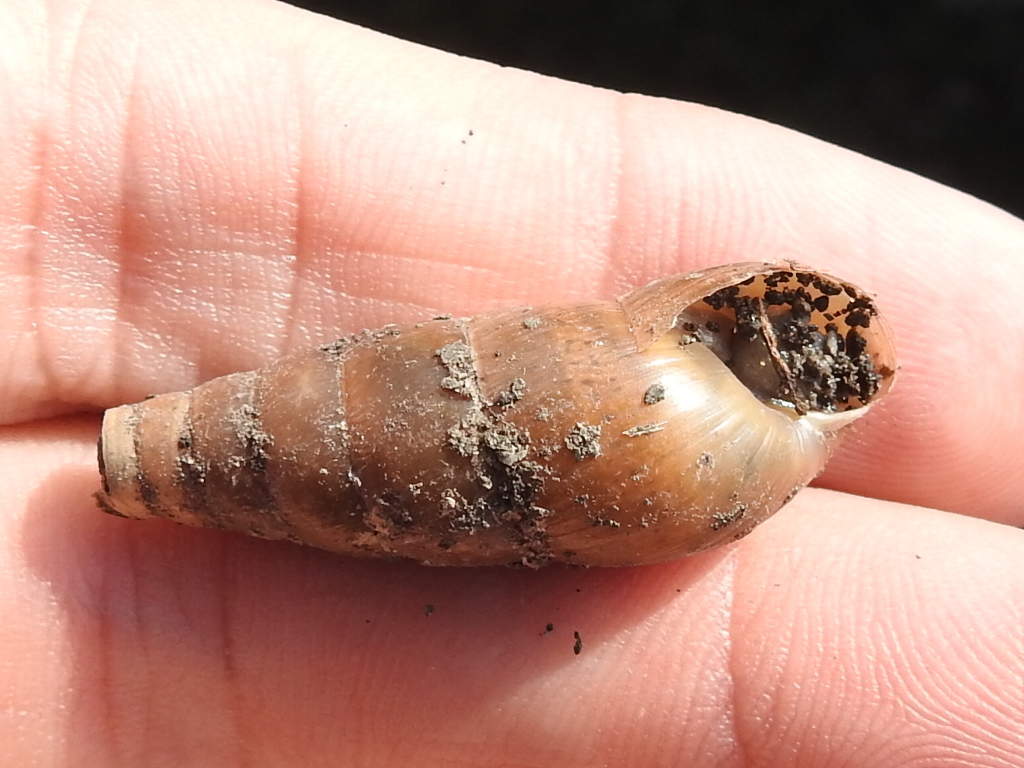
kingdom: Animalia
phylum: Mollusca
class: Gastropoda
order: Stylommatophora
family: Achatinidae
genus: Rumina
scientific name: Rumina decollata
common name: Decollate snail
